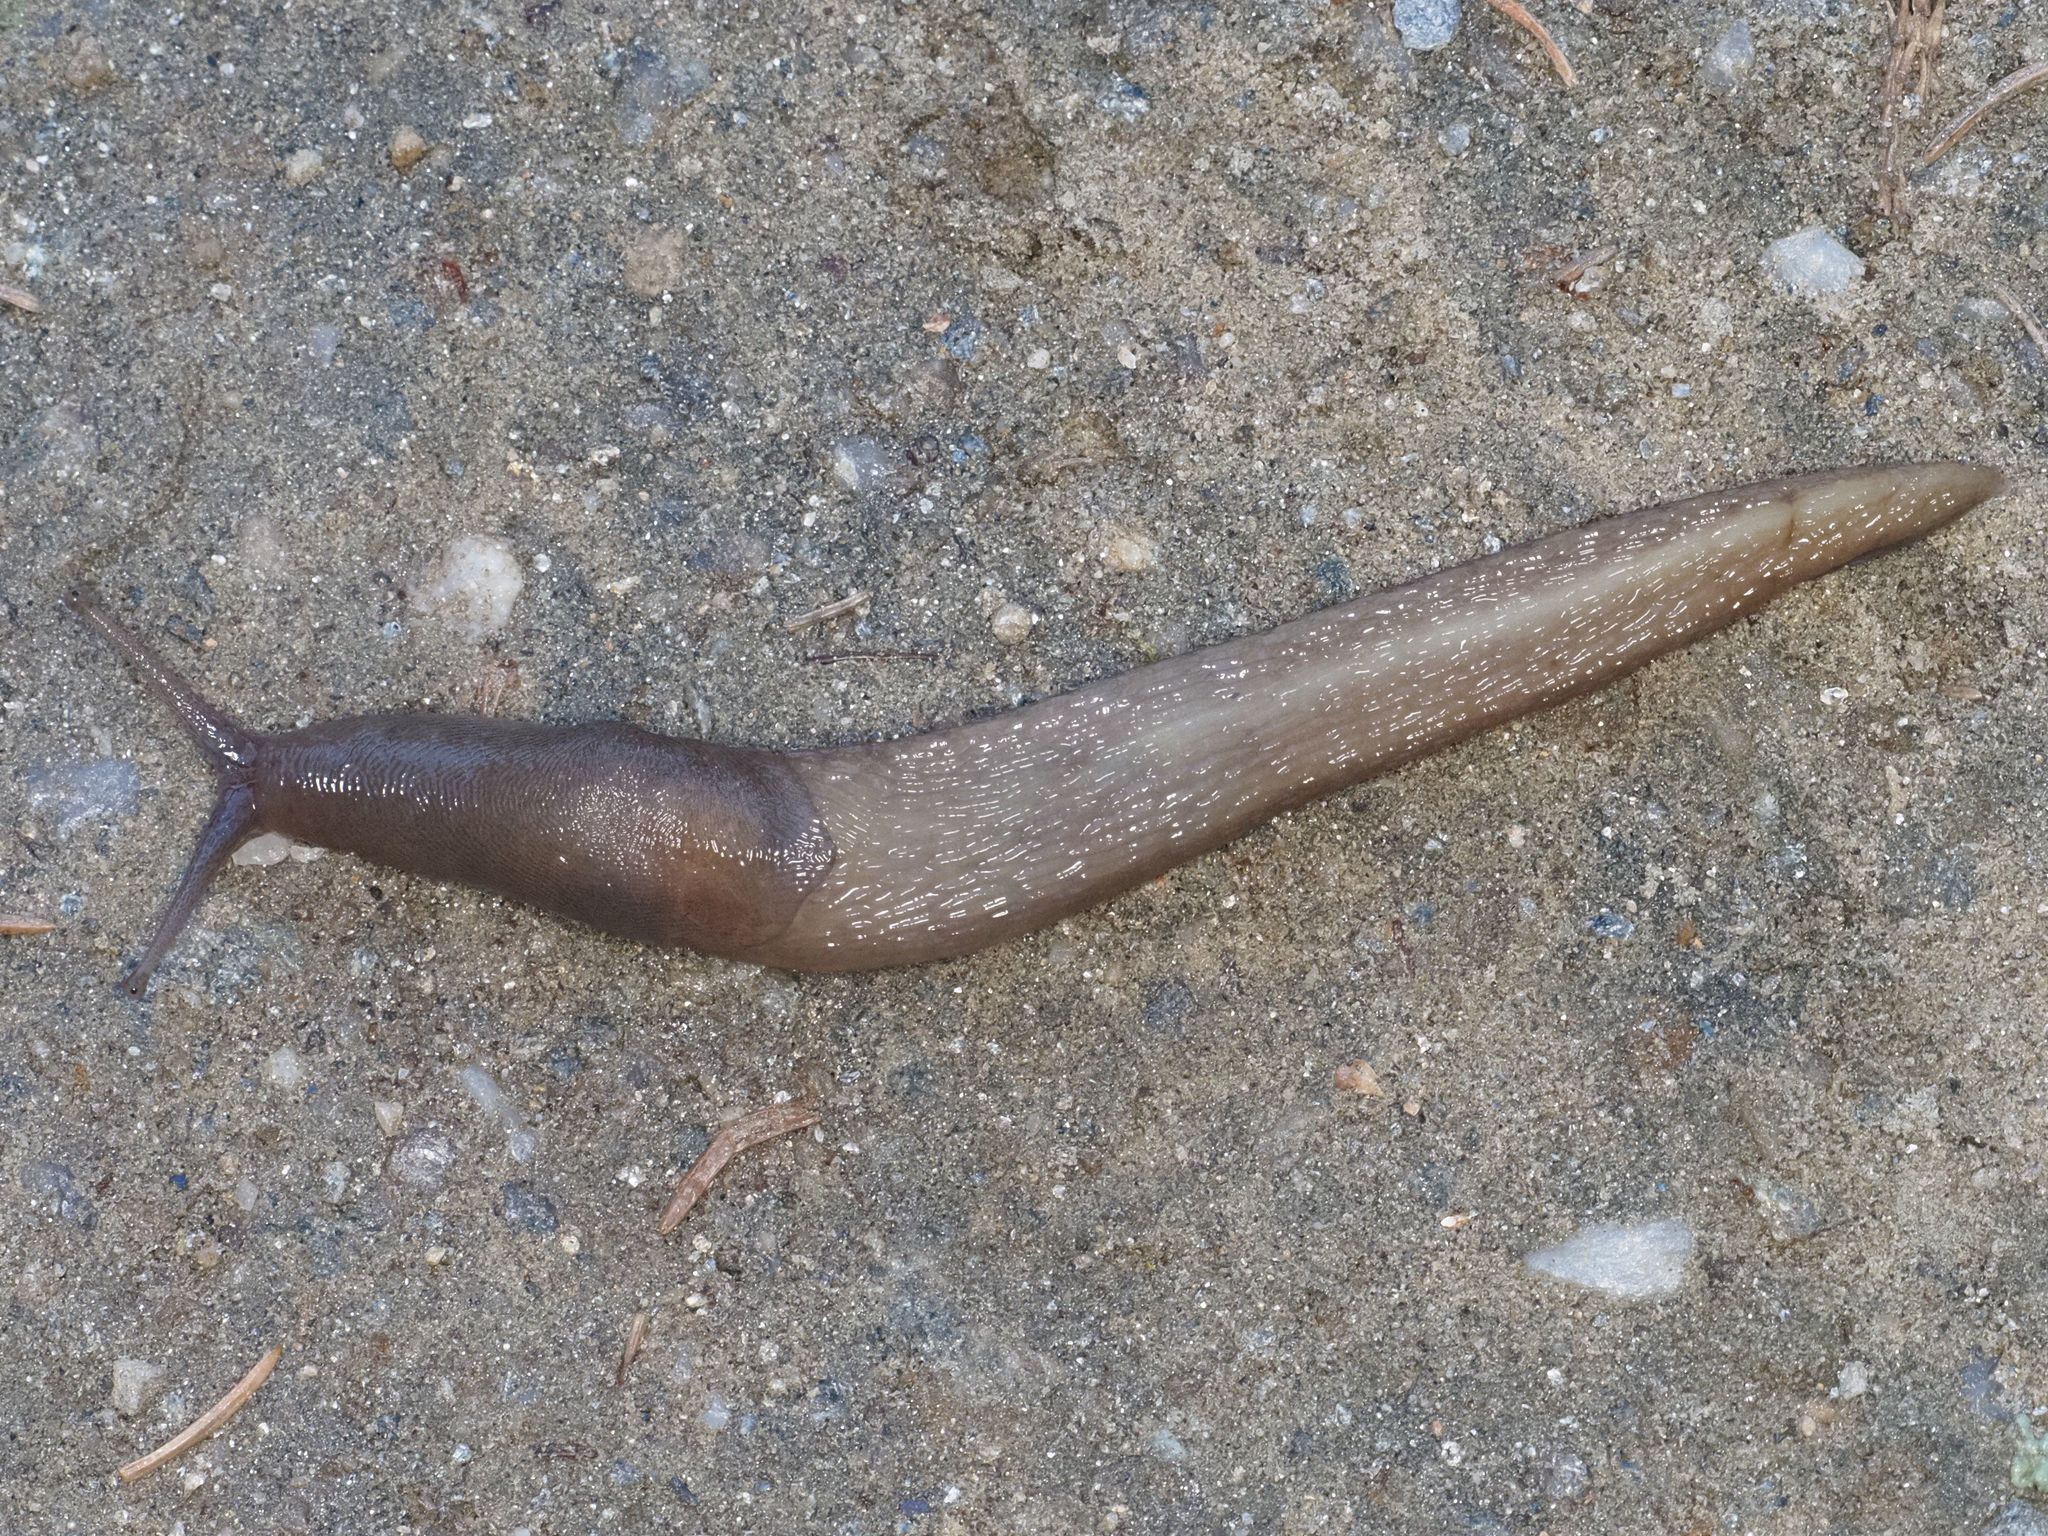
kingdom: Animalia
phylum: Mollusca
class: Gastropoda
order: Stylommatophora
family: Limacidae
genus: Limax
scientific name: Limax cinereoniger
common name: Ash-black slug
